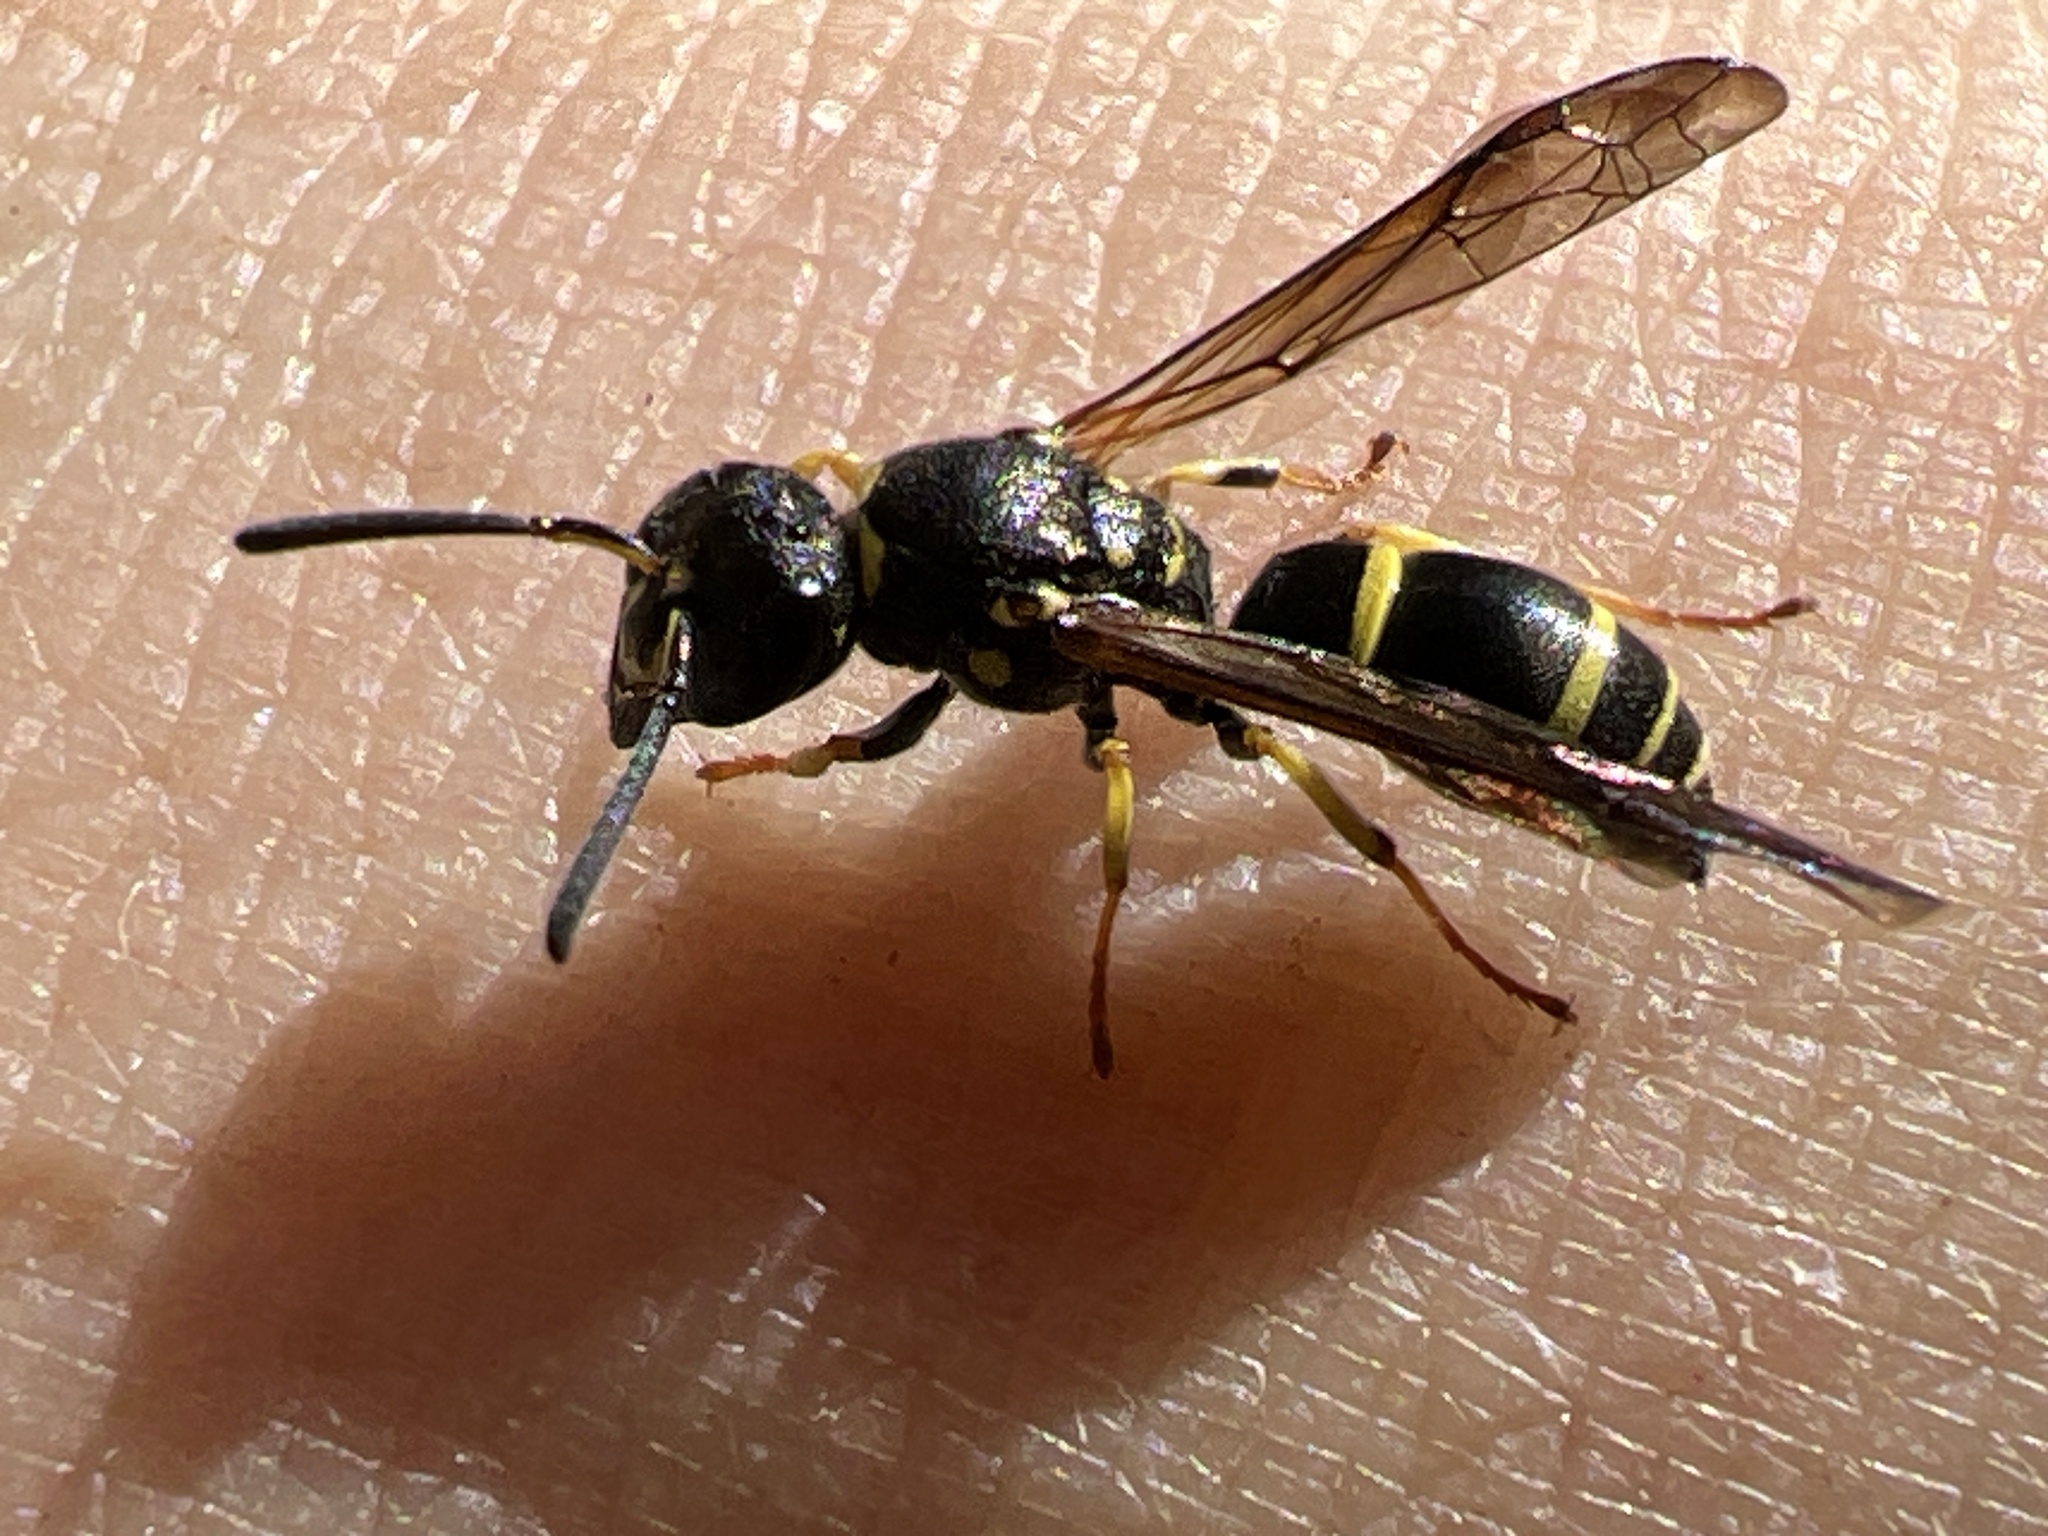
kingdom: Animalia
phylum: Arthropoda
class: Insecta
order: Hymenoptera
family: Vespidae
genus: Ancistrocerus
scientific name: Ancistrocerus adiabatus
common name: Bramble mason wasp
